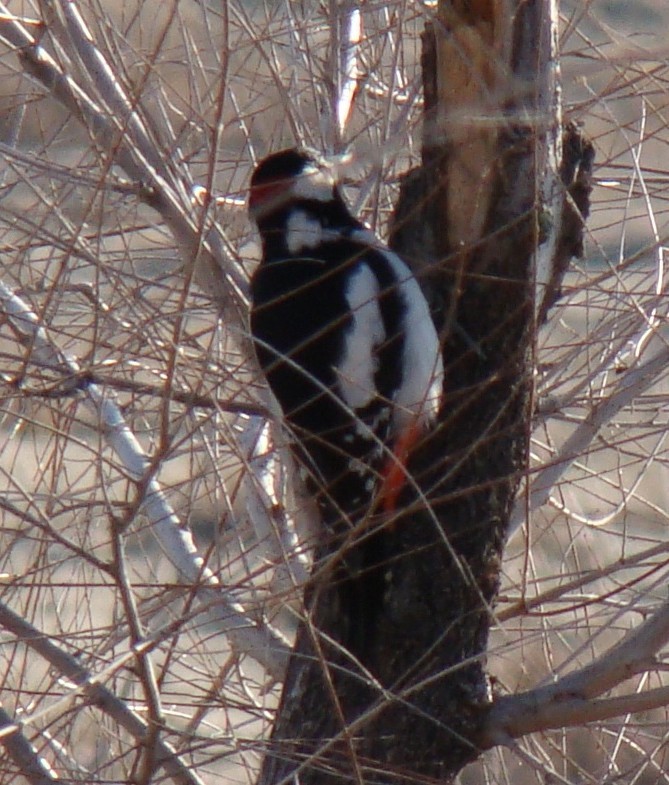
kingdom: Animalia
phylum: Chordata
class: Aves
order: Piciformes
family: Picidae
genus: Dendrocopos
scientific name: Dendrocopos leucopterus
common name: White-winged woodpecker
